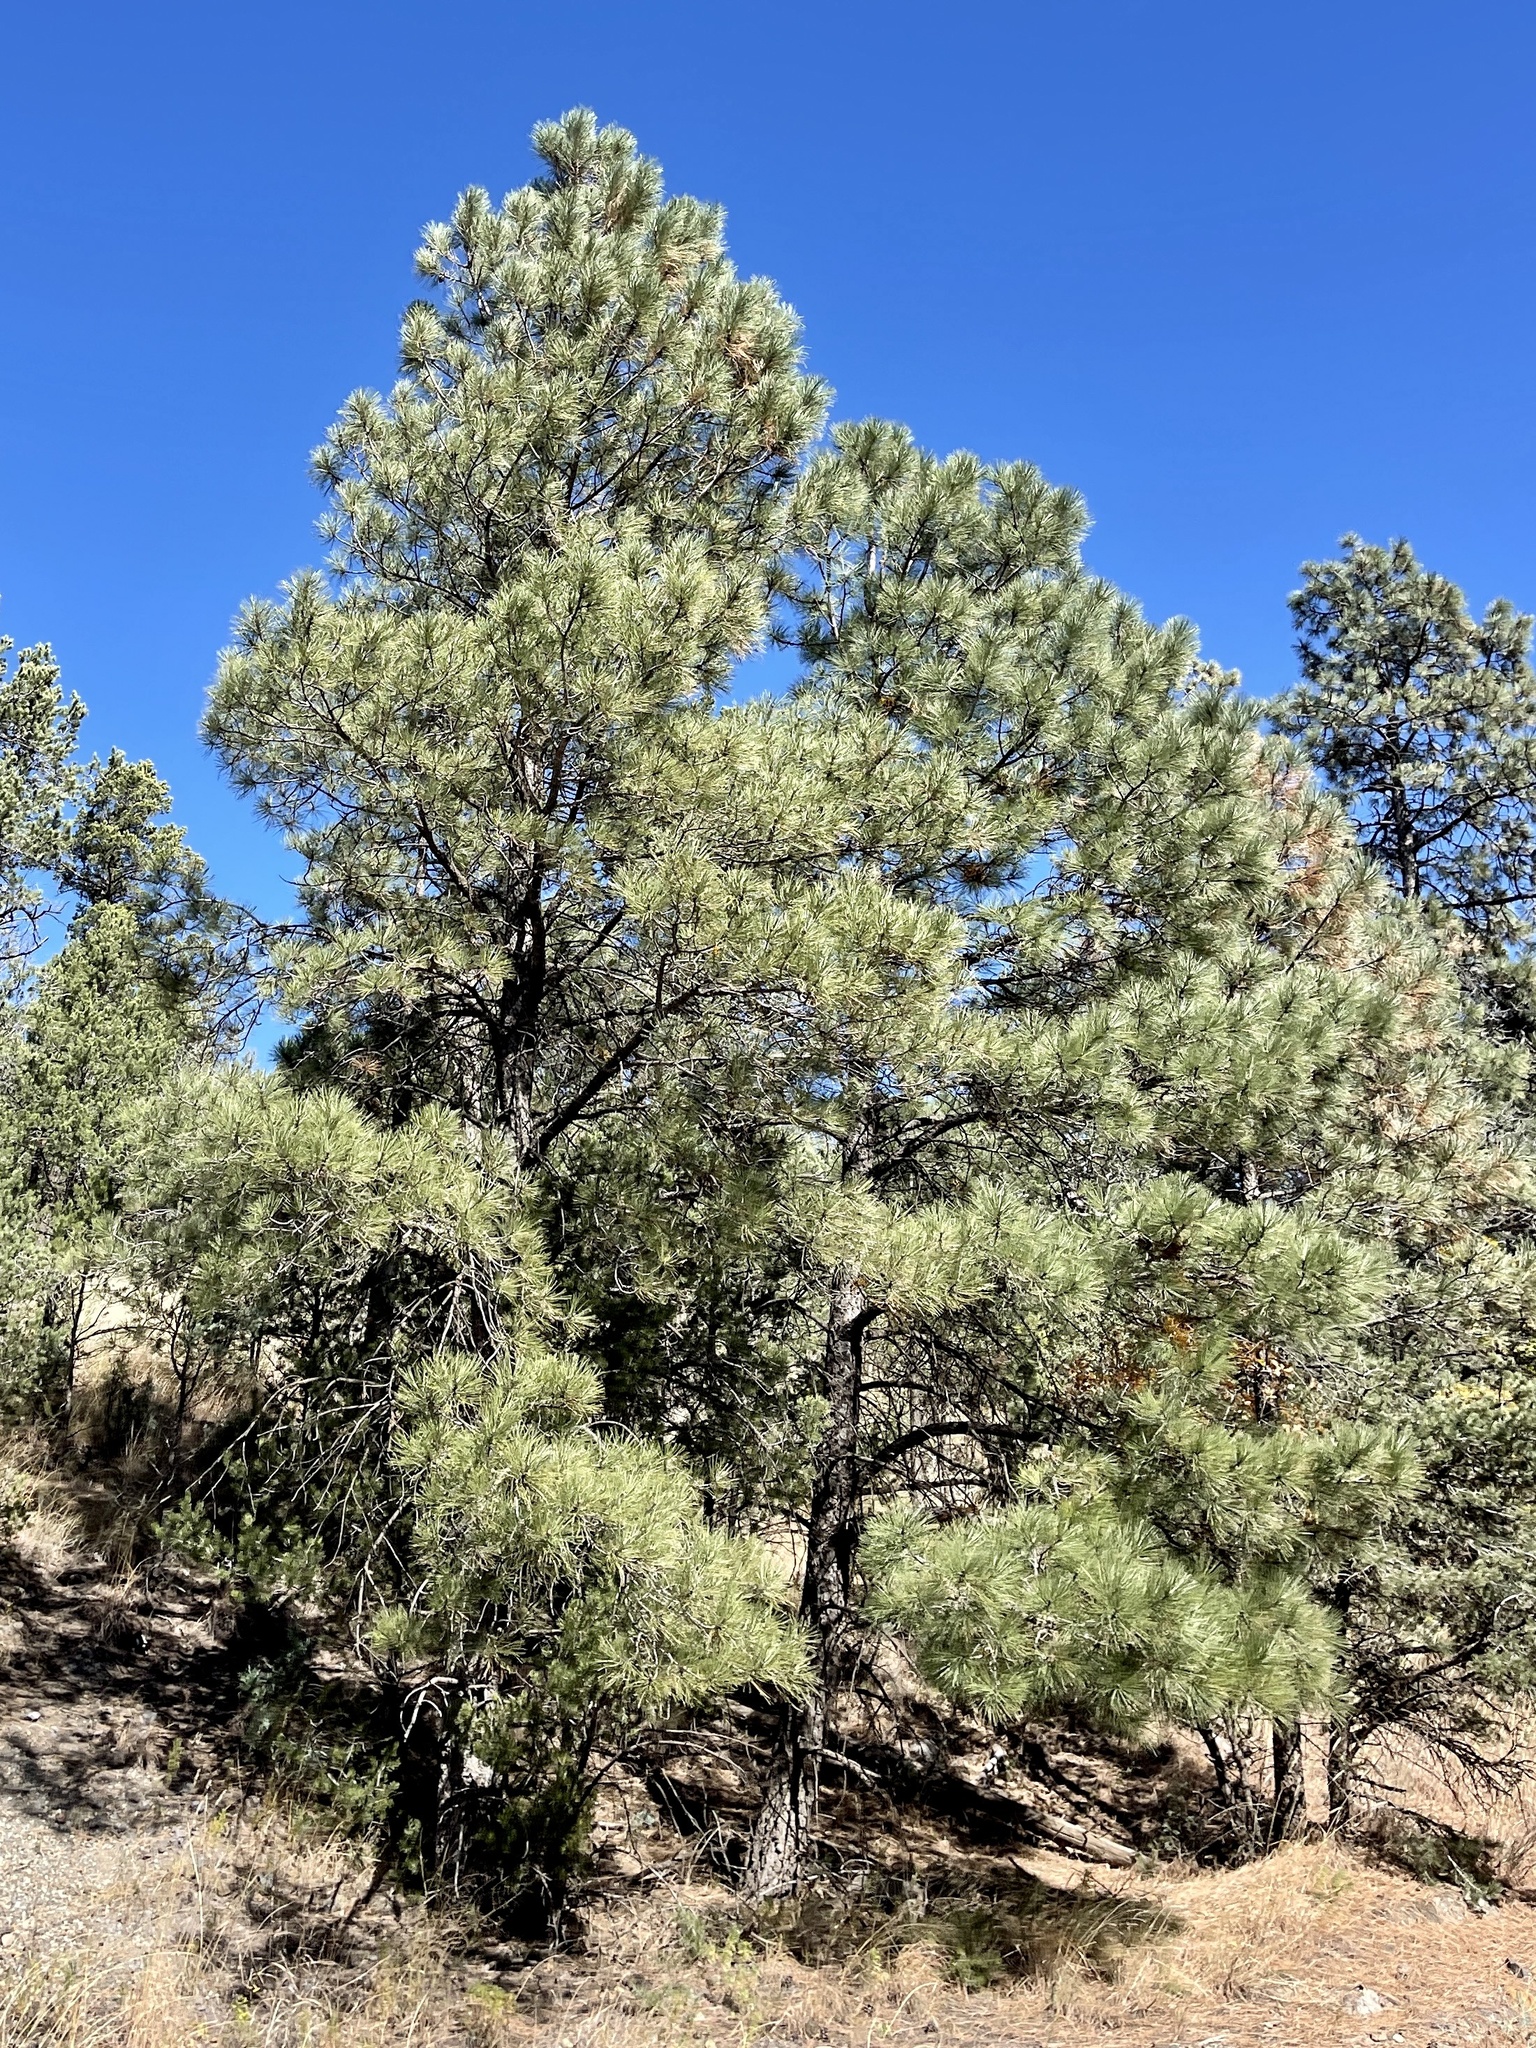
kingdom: Plantae
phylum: Tracheophyta
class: Pinopsida
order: Pinales
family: Pinaceae
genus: Pinus
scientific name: Pinus ponderosa
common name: Western yellow-pine
